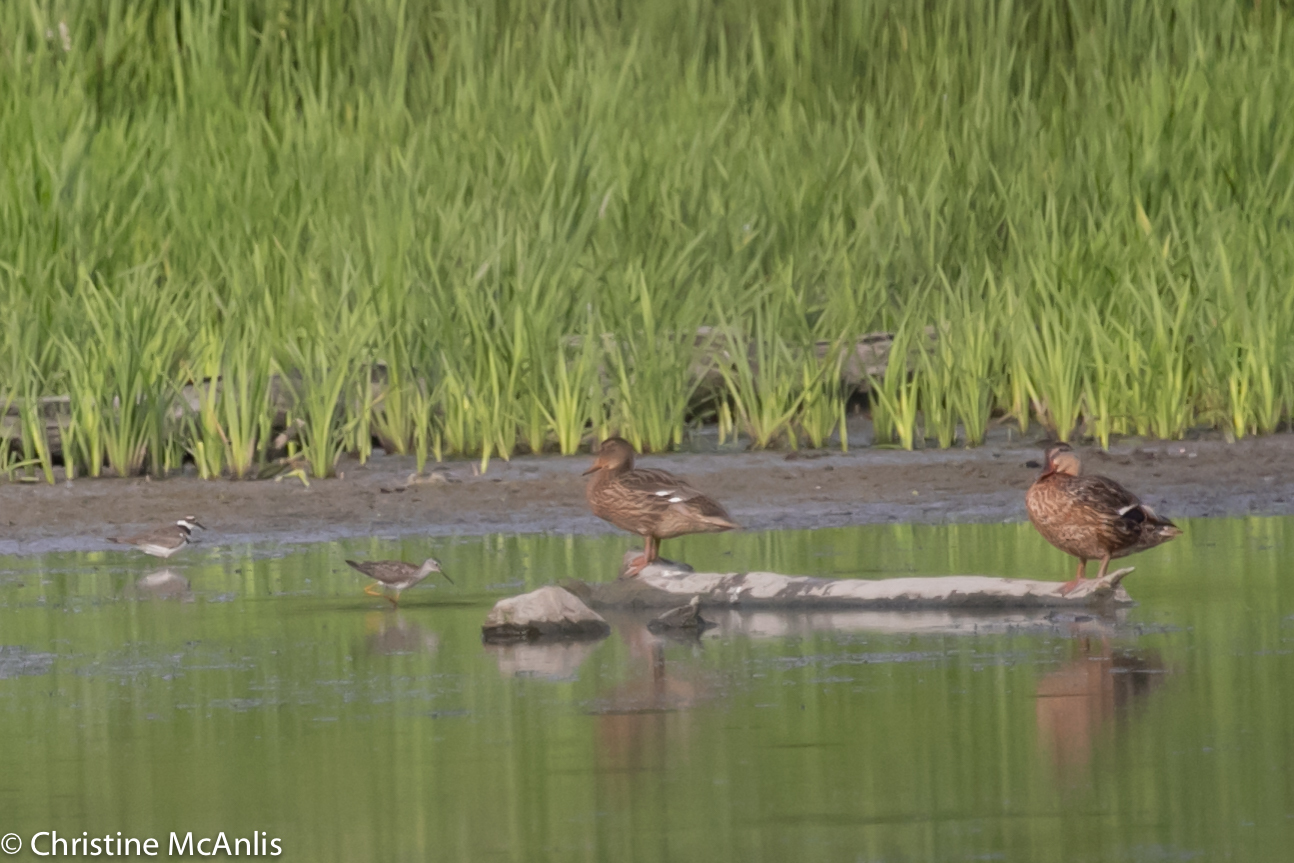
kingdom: Animalia
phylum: Chordata
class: Aves
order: Charadriiformes
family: Scolopacidae
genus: Tringa
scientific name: Tringa flavipes
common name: Lesser yellowlegs
